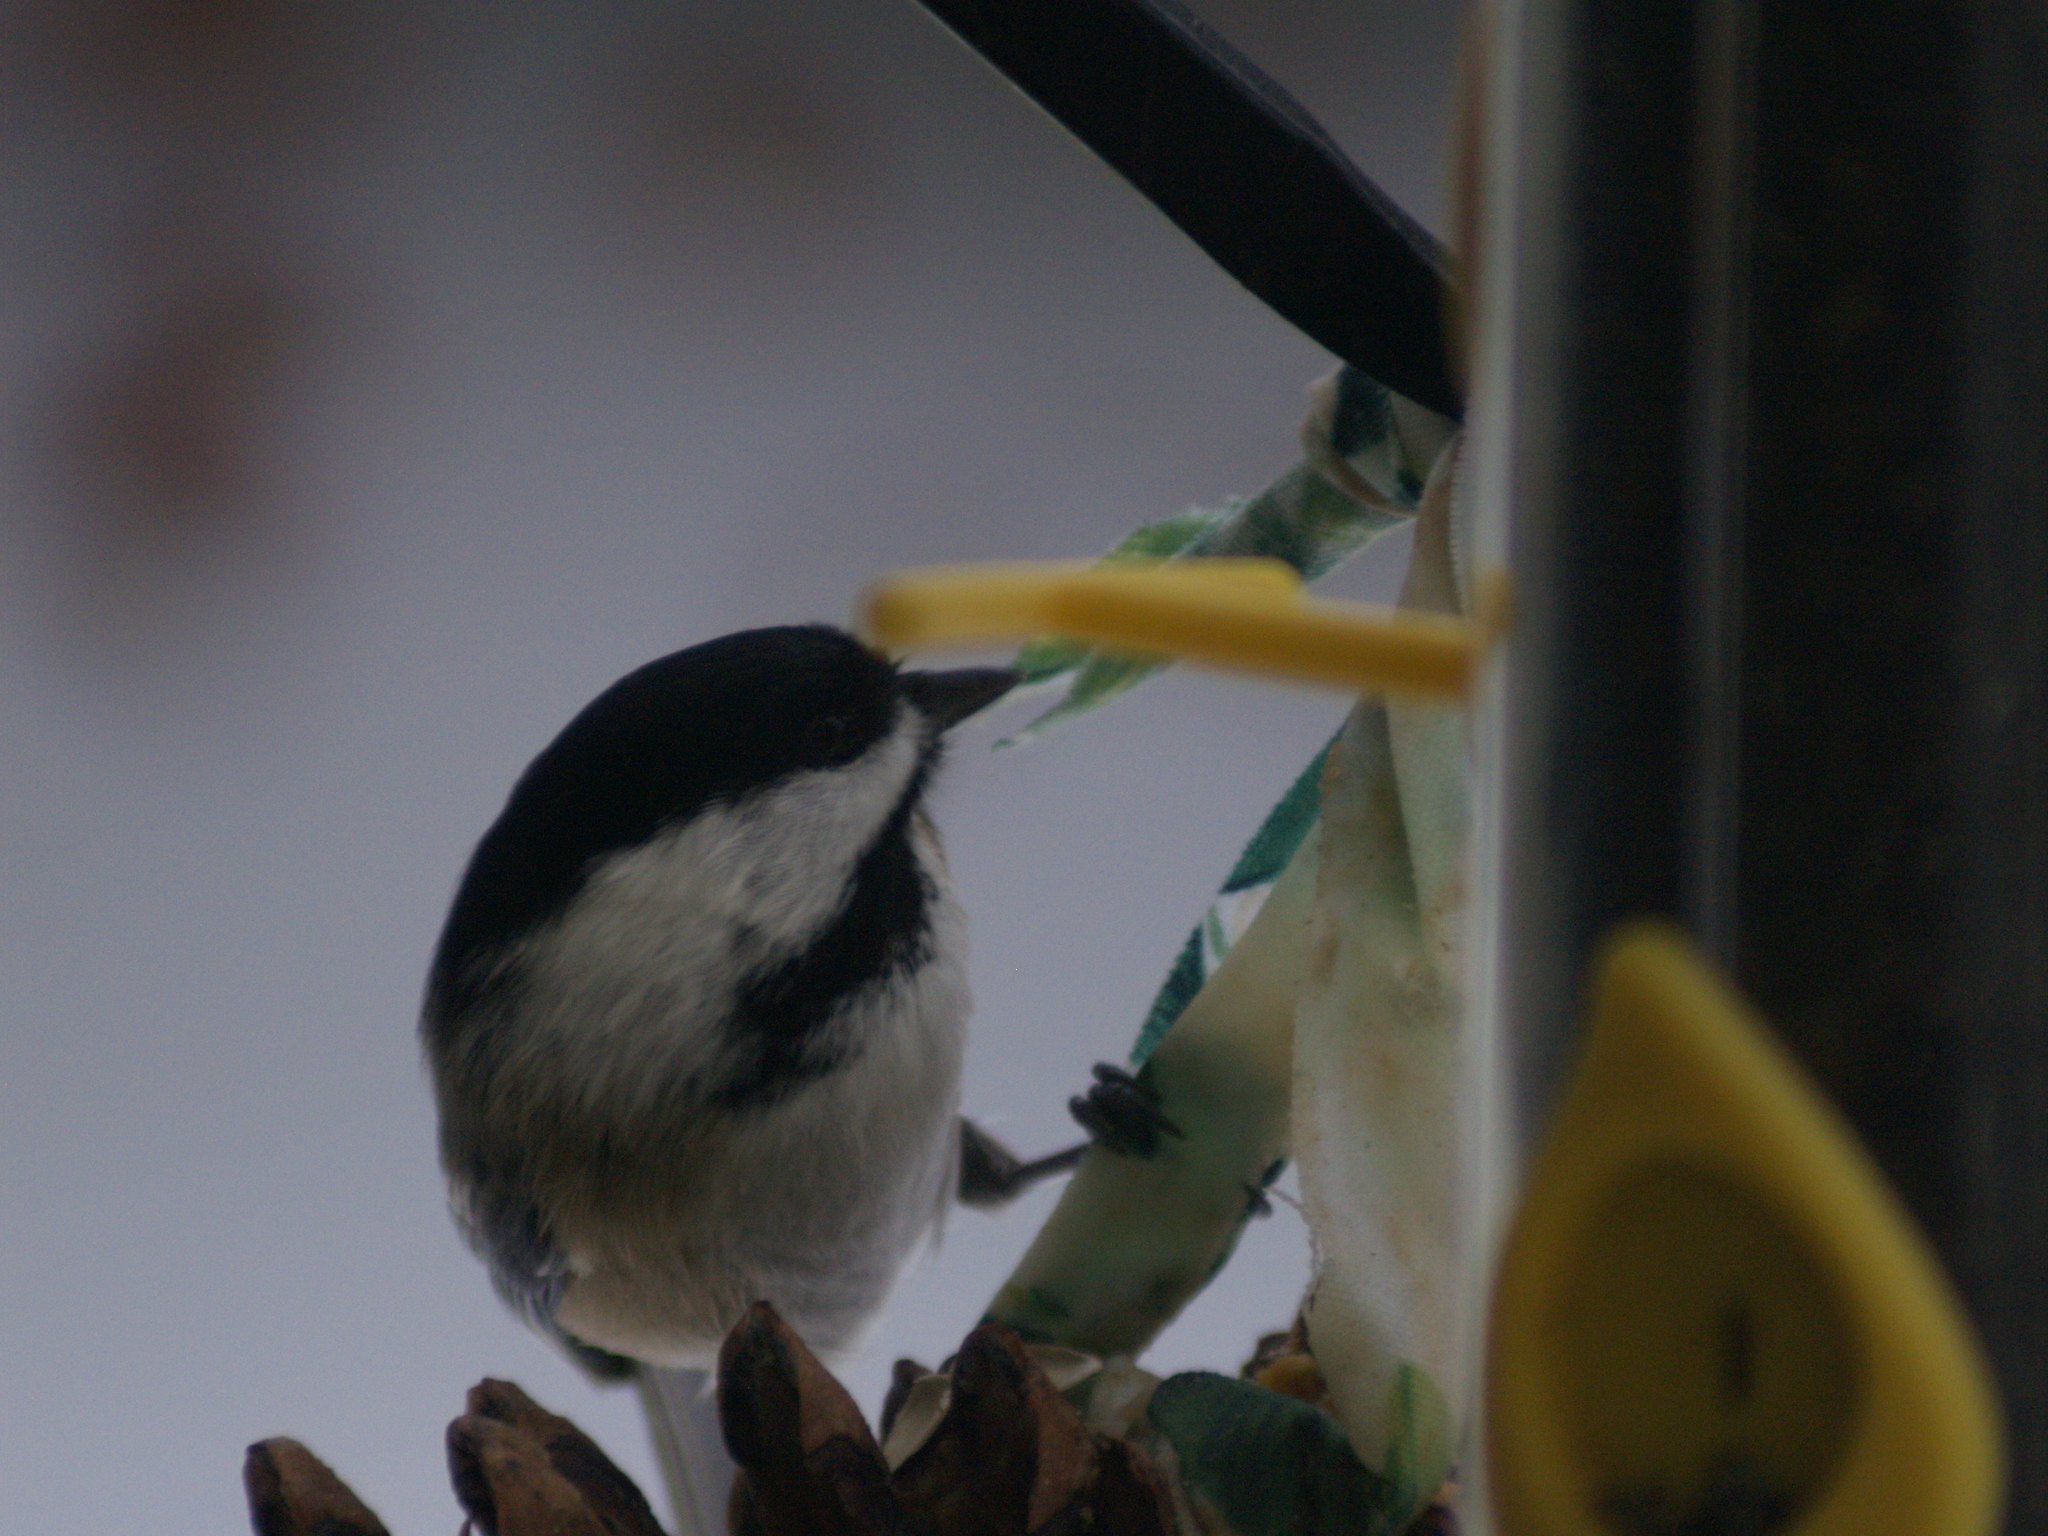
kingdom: Animalia
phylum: Chordata
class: Aves
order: Passeriformes
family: Paridae
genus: Poecile
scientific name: Poecile atricapillus
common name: Black-capped chickadee
